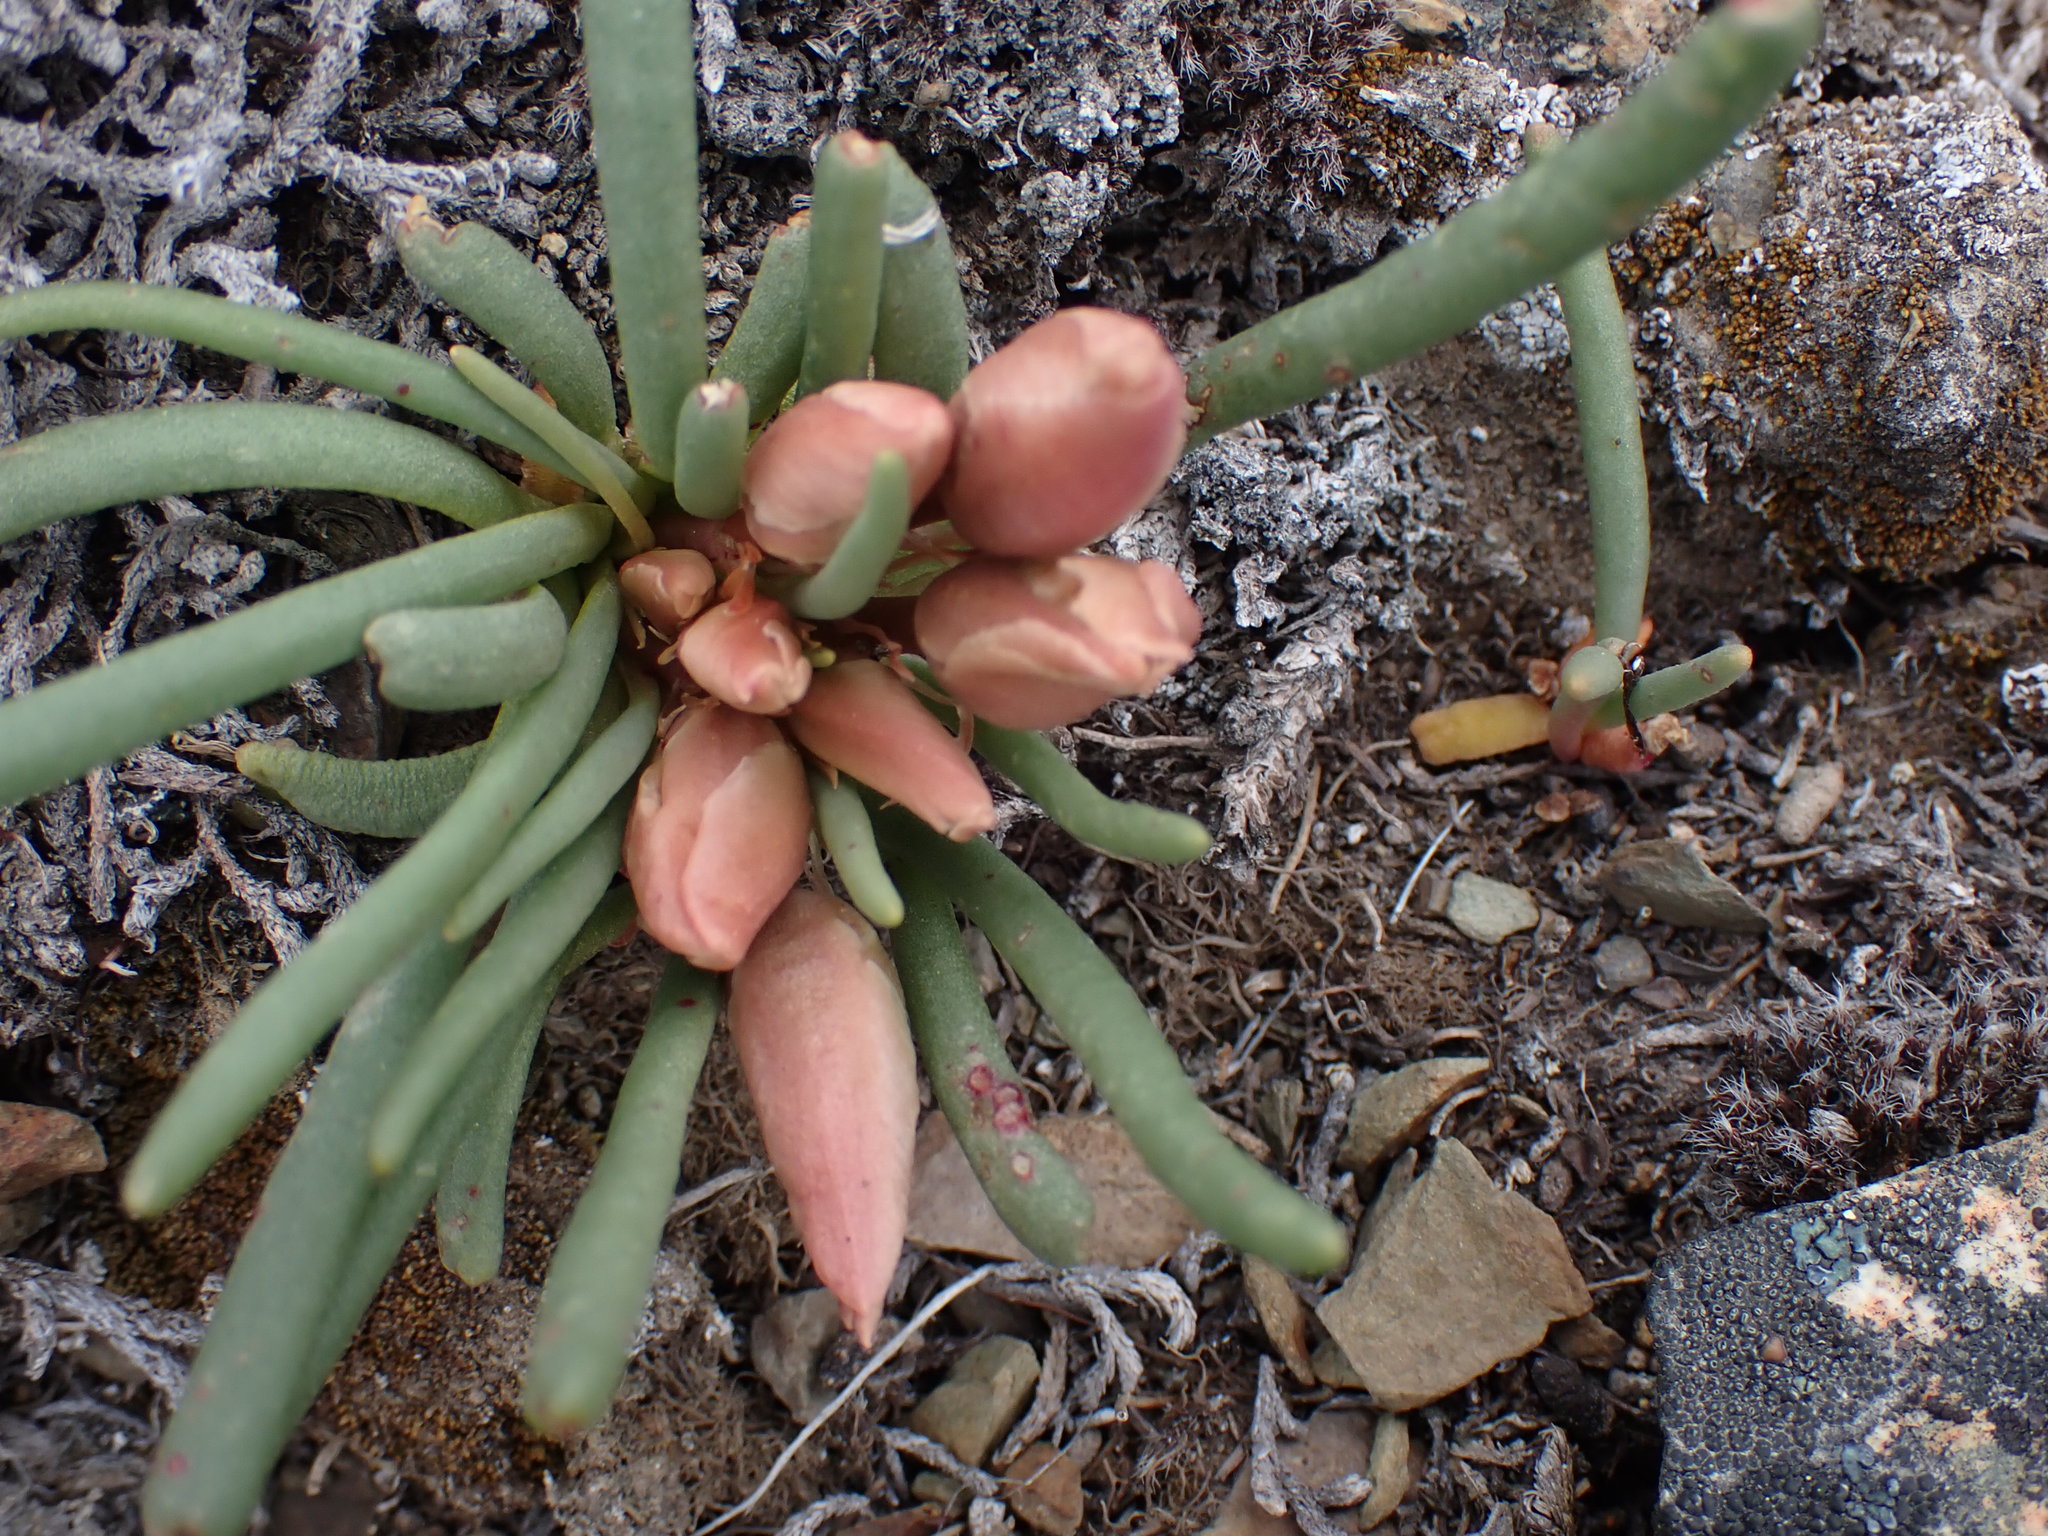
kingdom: Plantae
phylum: Tracheophyta
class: Magnoliopsida
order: Caryophyllales
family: Montiaceae
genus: Lewisia
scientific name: Lewisia rediviva
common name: Bitter-root
